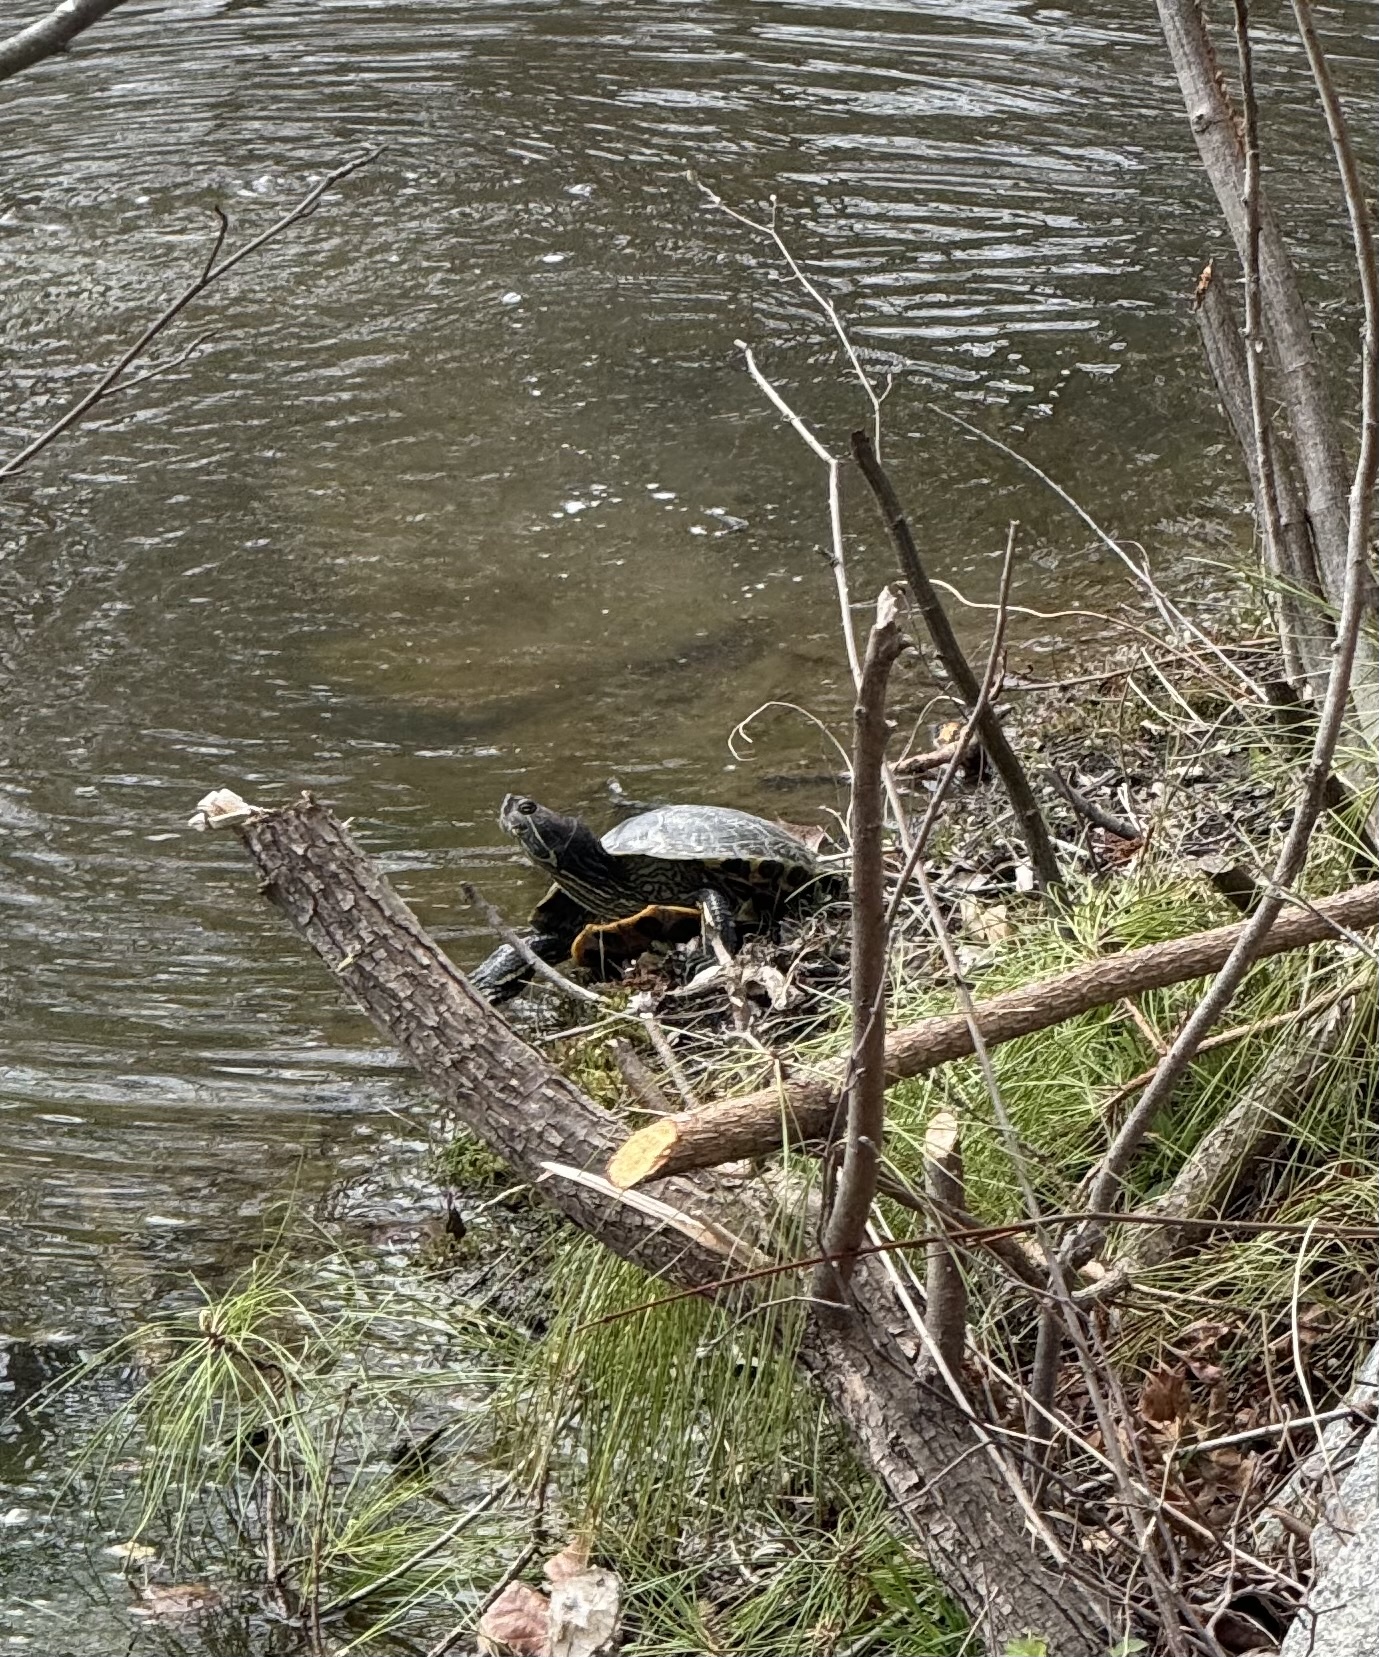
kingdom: Animalia
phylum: Chordata
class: Testudines
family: Emydidae
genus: Trachemys
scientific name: Trachemys scripta
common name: Slider
